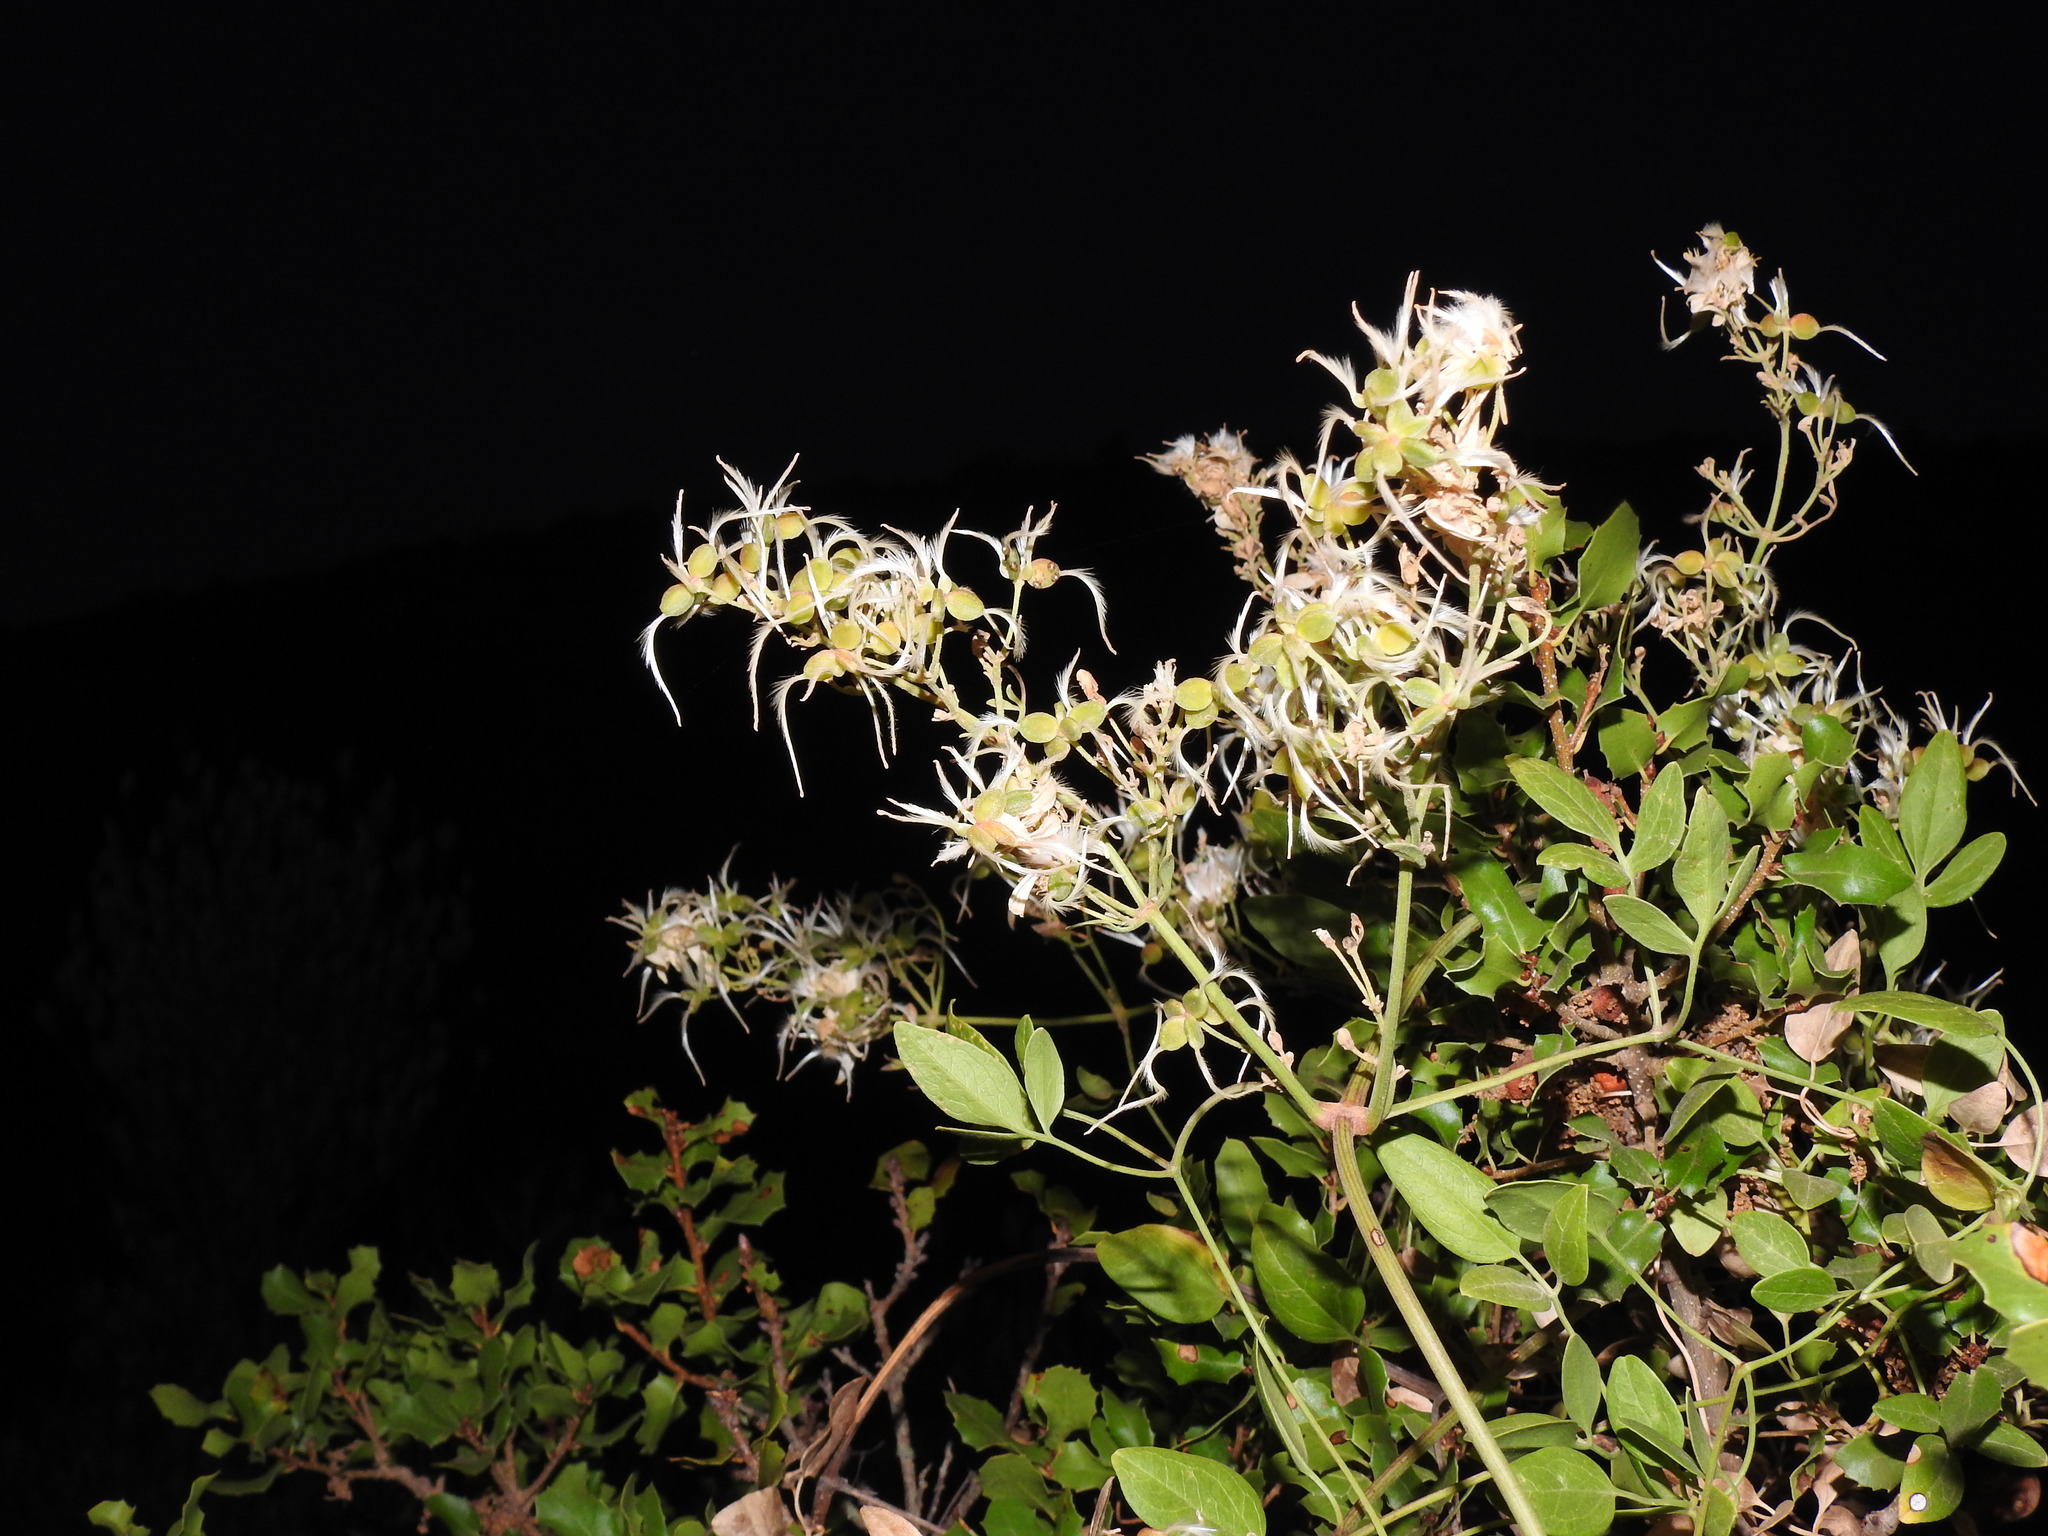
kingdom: Plantae
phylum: Tracheophyta
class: Magnoliopsida
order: Ranunculales
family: Ranunculaceae
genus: Clematis
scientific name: Clematis flammula
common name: Virgin's-bower
